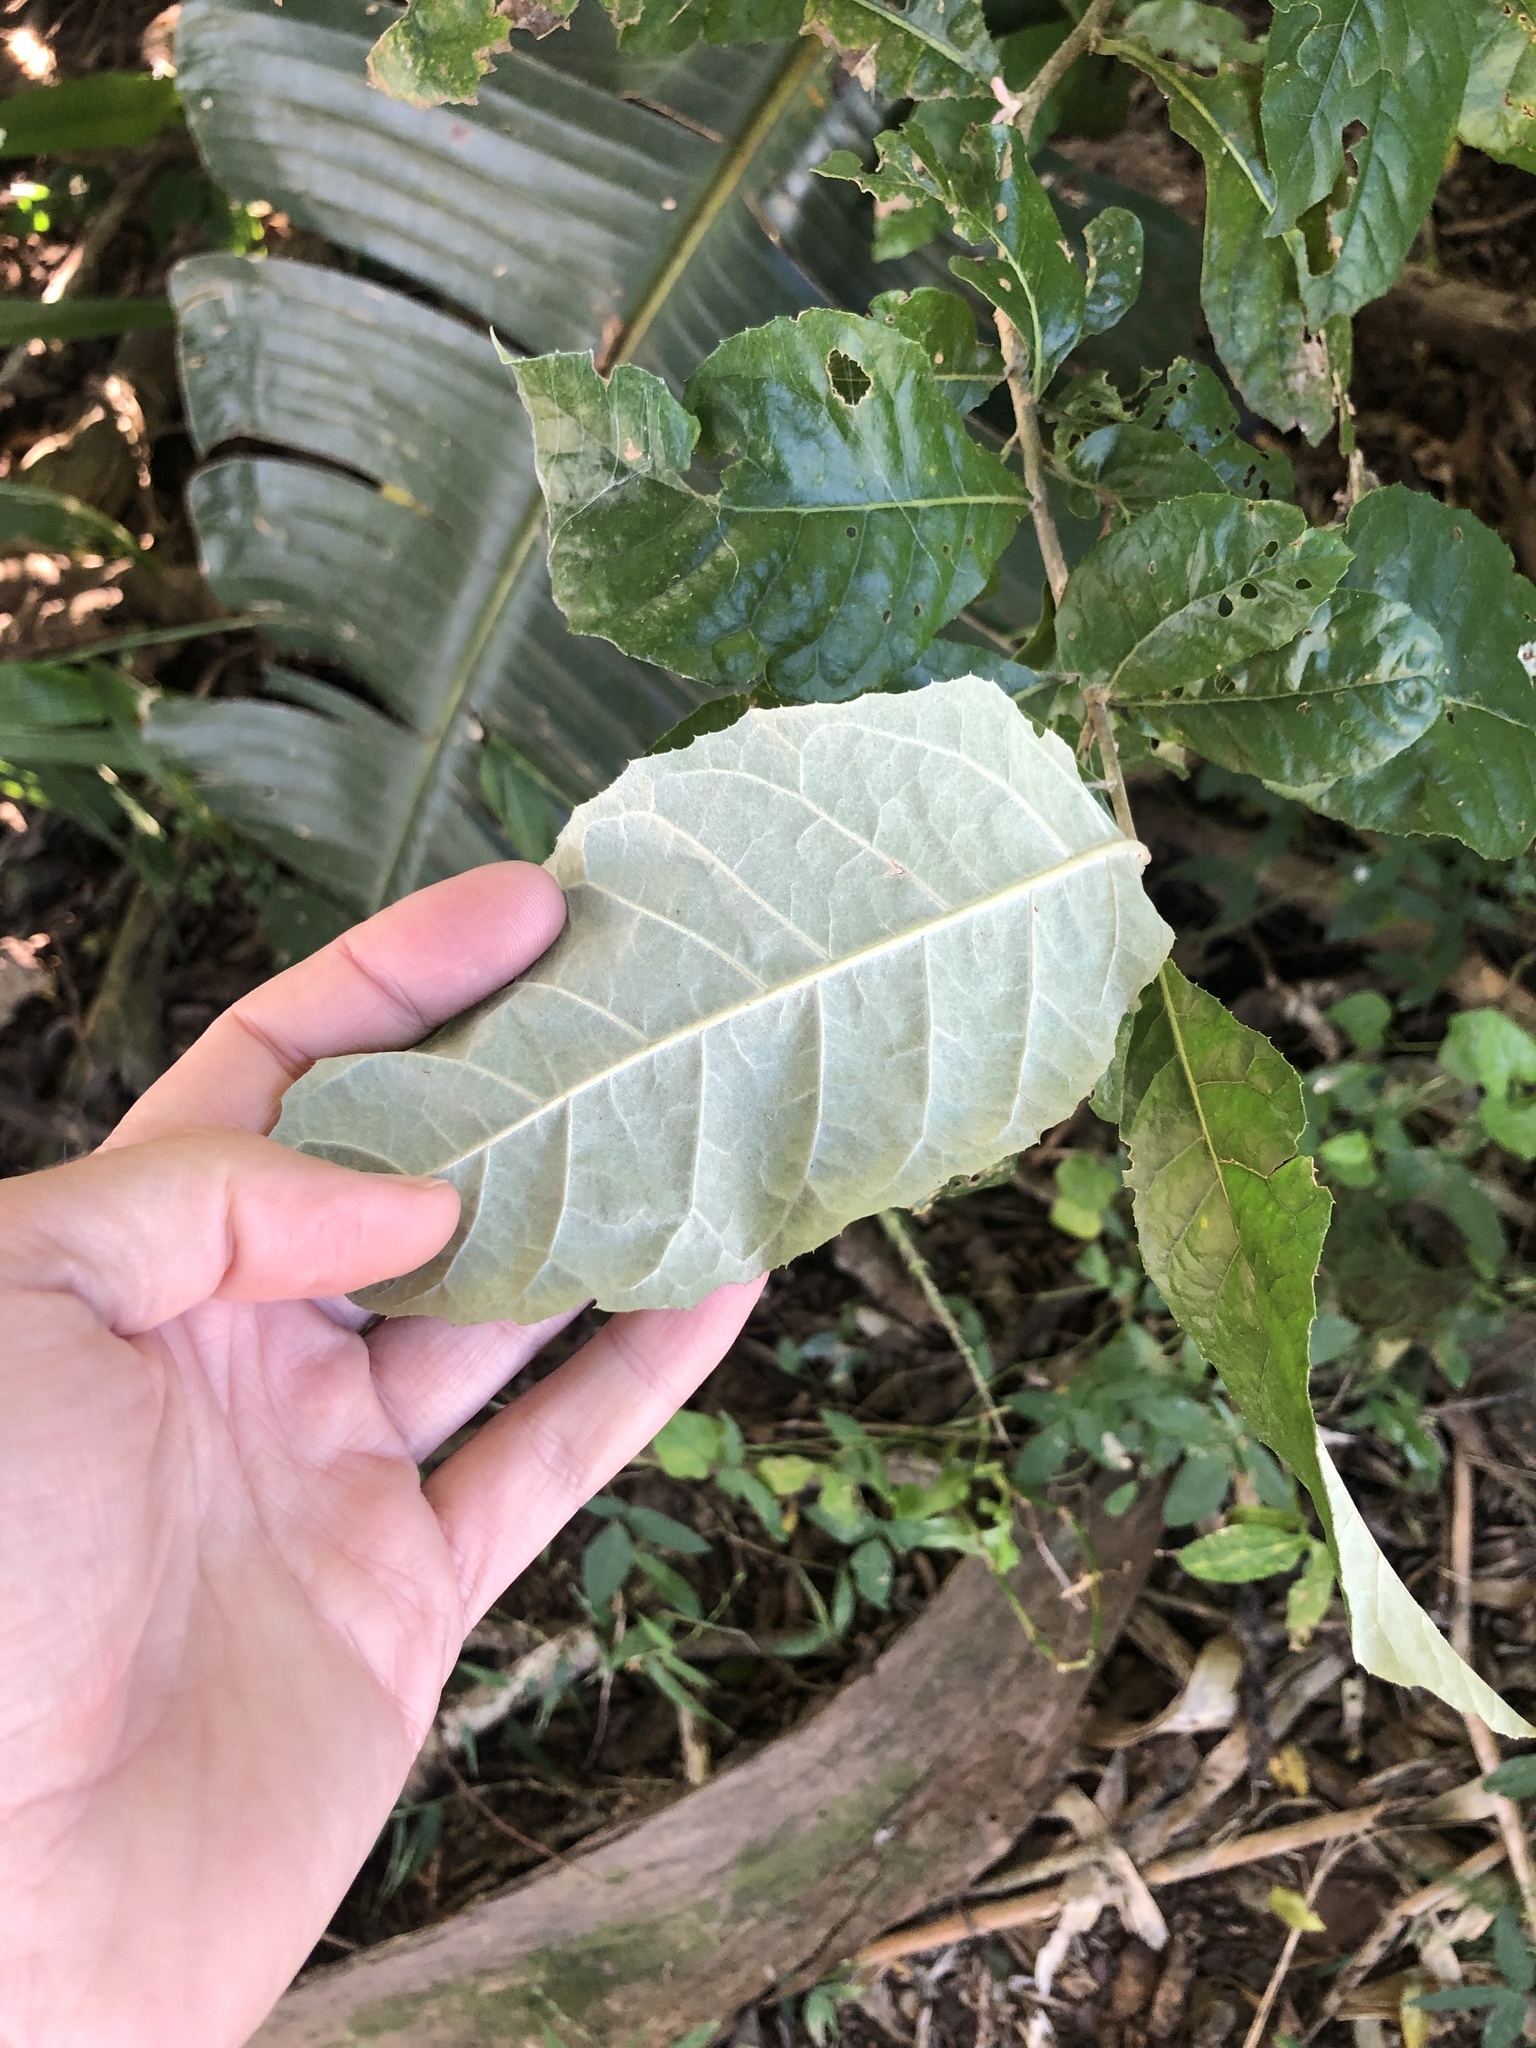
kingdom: Plantae
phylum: Tracheophyta
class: Magnoliopsida
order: Asterales
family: Asteraceae
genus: Brachylaena
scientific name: Brachylaena discolor
